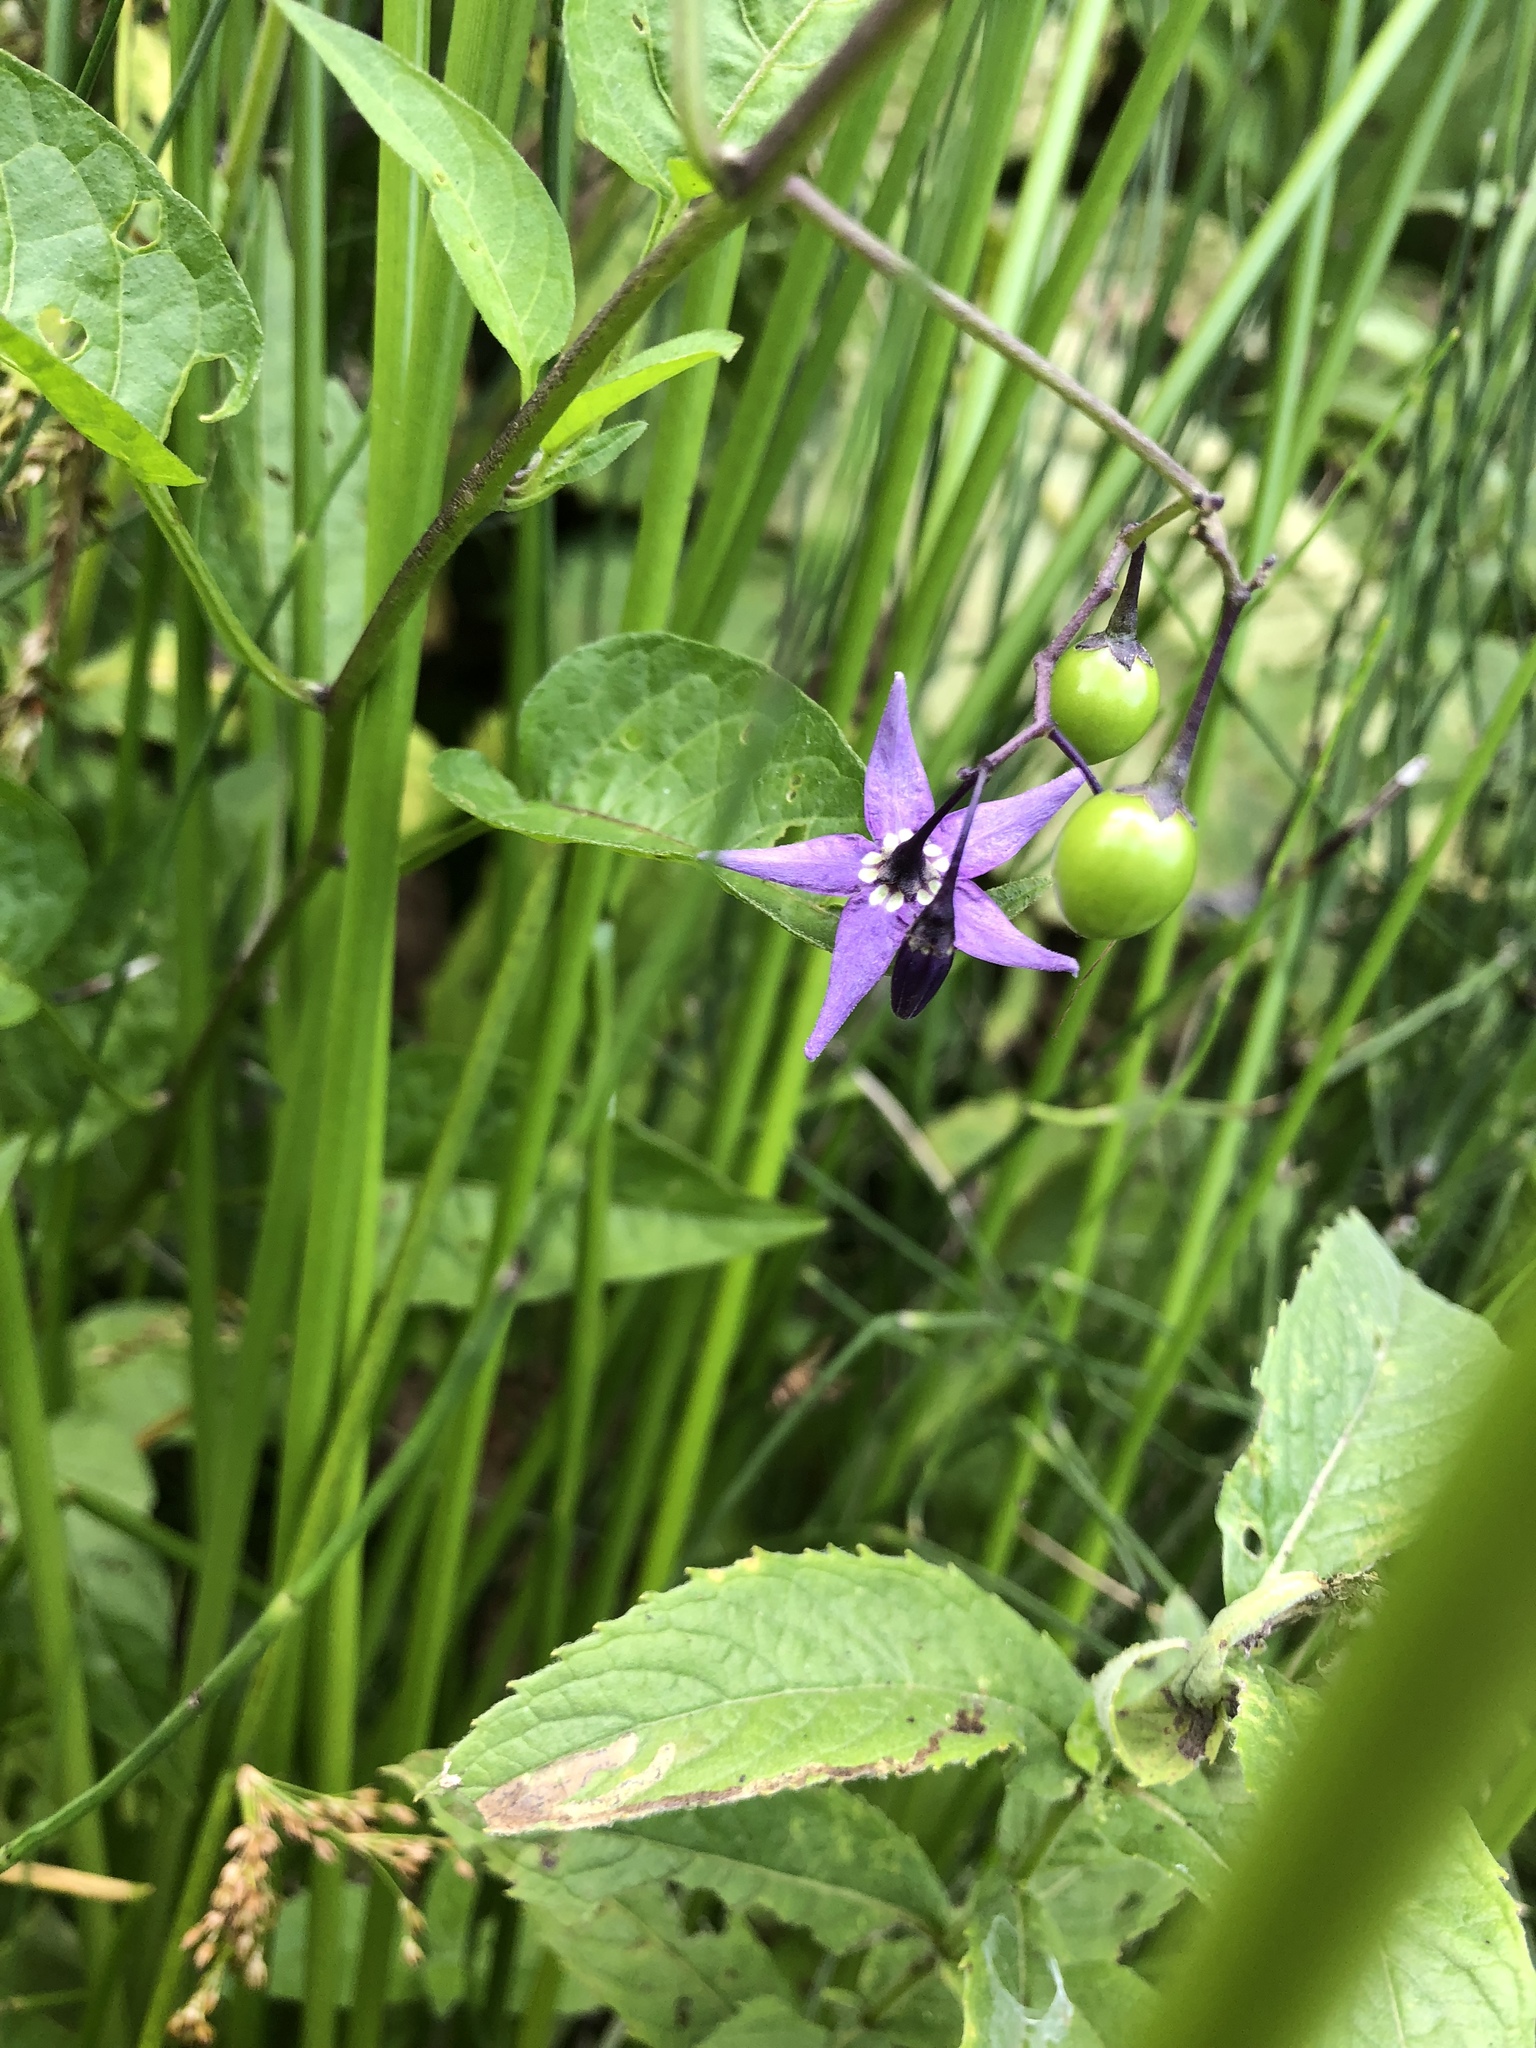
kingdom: Plantae
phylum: Tracheophyta
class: Magnoliopsida
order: Solanales
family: Solanaceae
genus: Solanum
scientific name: Solanum dulcamara
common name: Climbing nightshade
